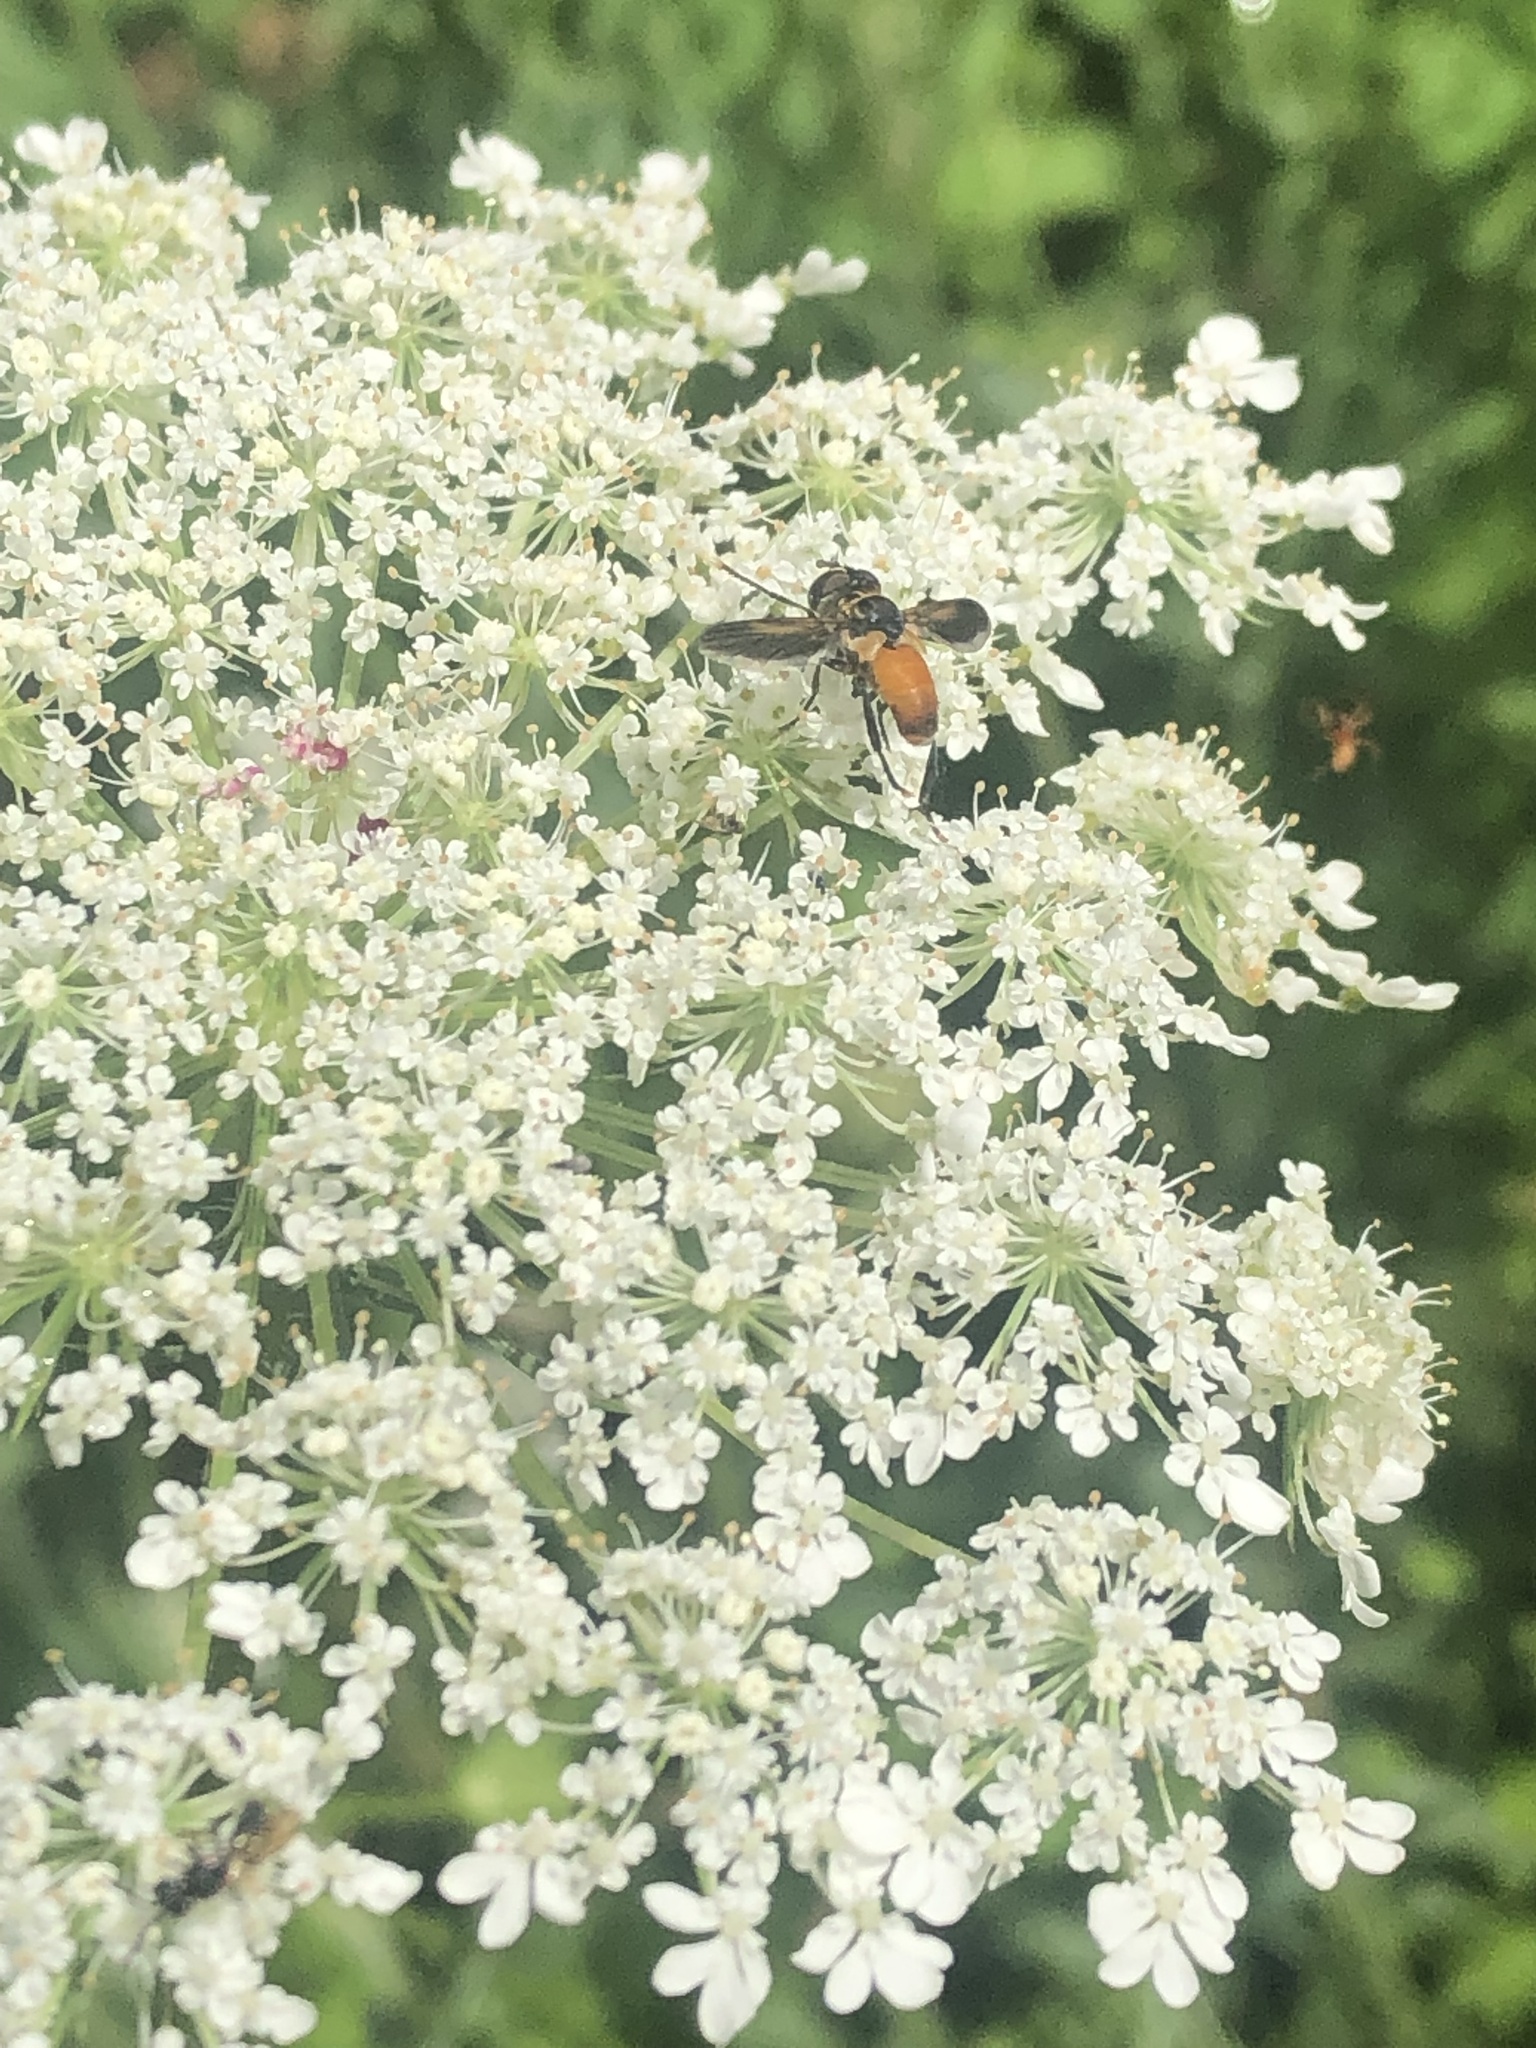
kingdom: Animalia
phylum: Arthropoda
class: Insecta
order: Diptera
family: Tachinidae
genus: Trichopoda
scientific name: Trichopoda pennipes
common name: Tachinid fly
